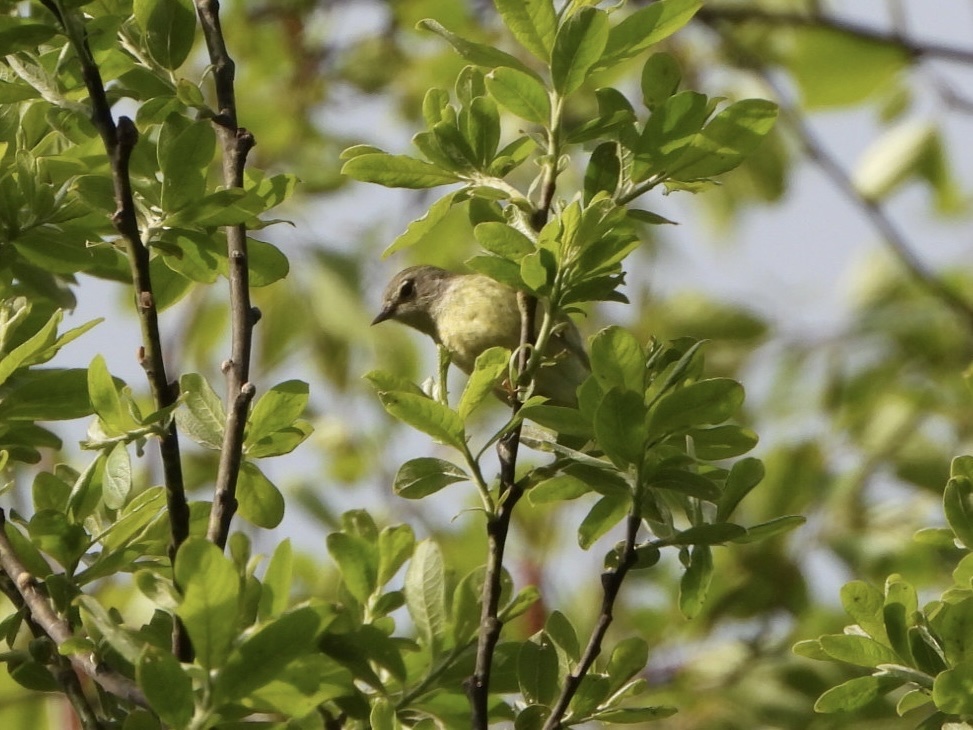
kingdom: Animalia
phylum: Chordata
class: Aves
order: Passeriformes
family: Parulidae
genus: Leiothlypis
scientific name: Leiothlypis celata
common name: Orange-crowned warbler
